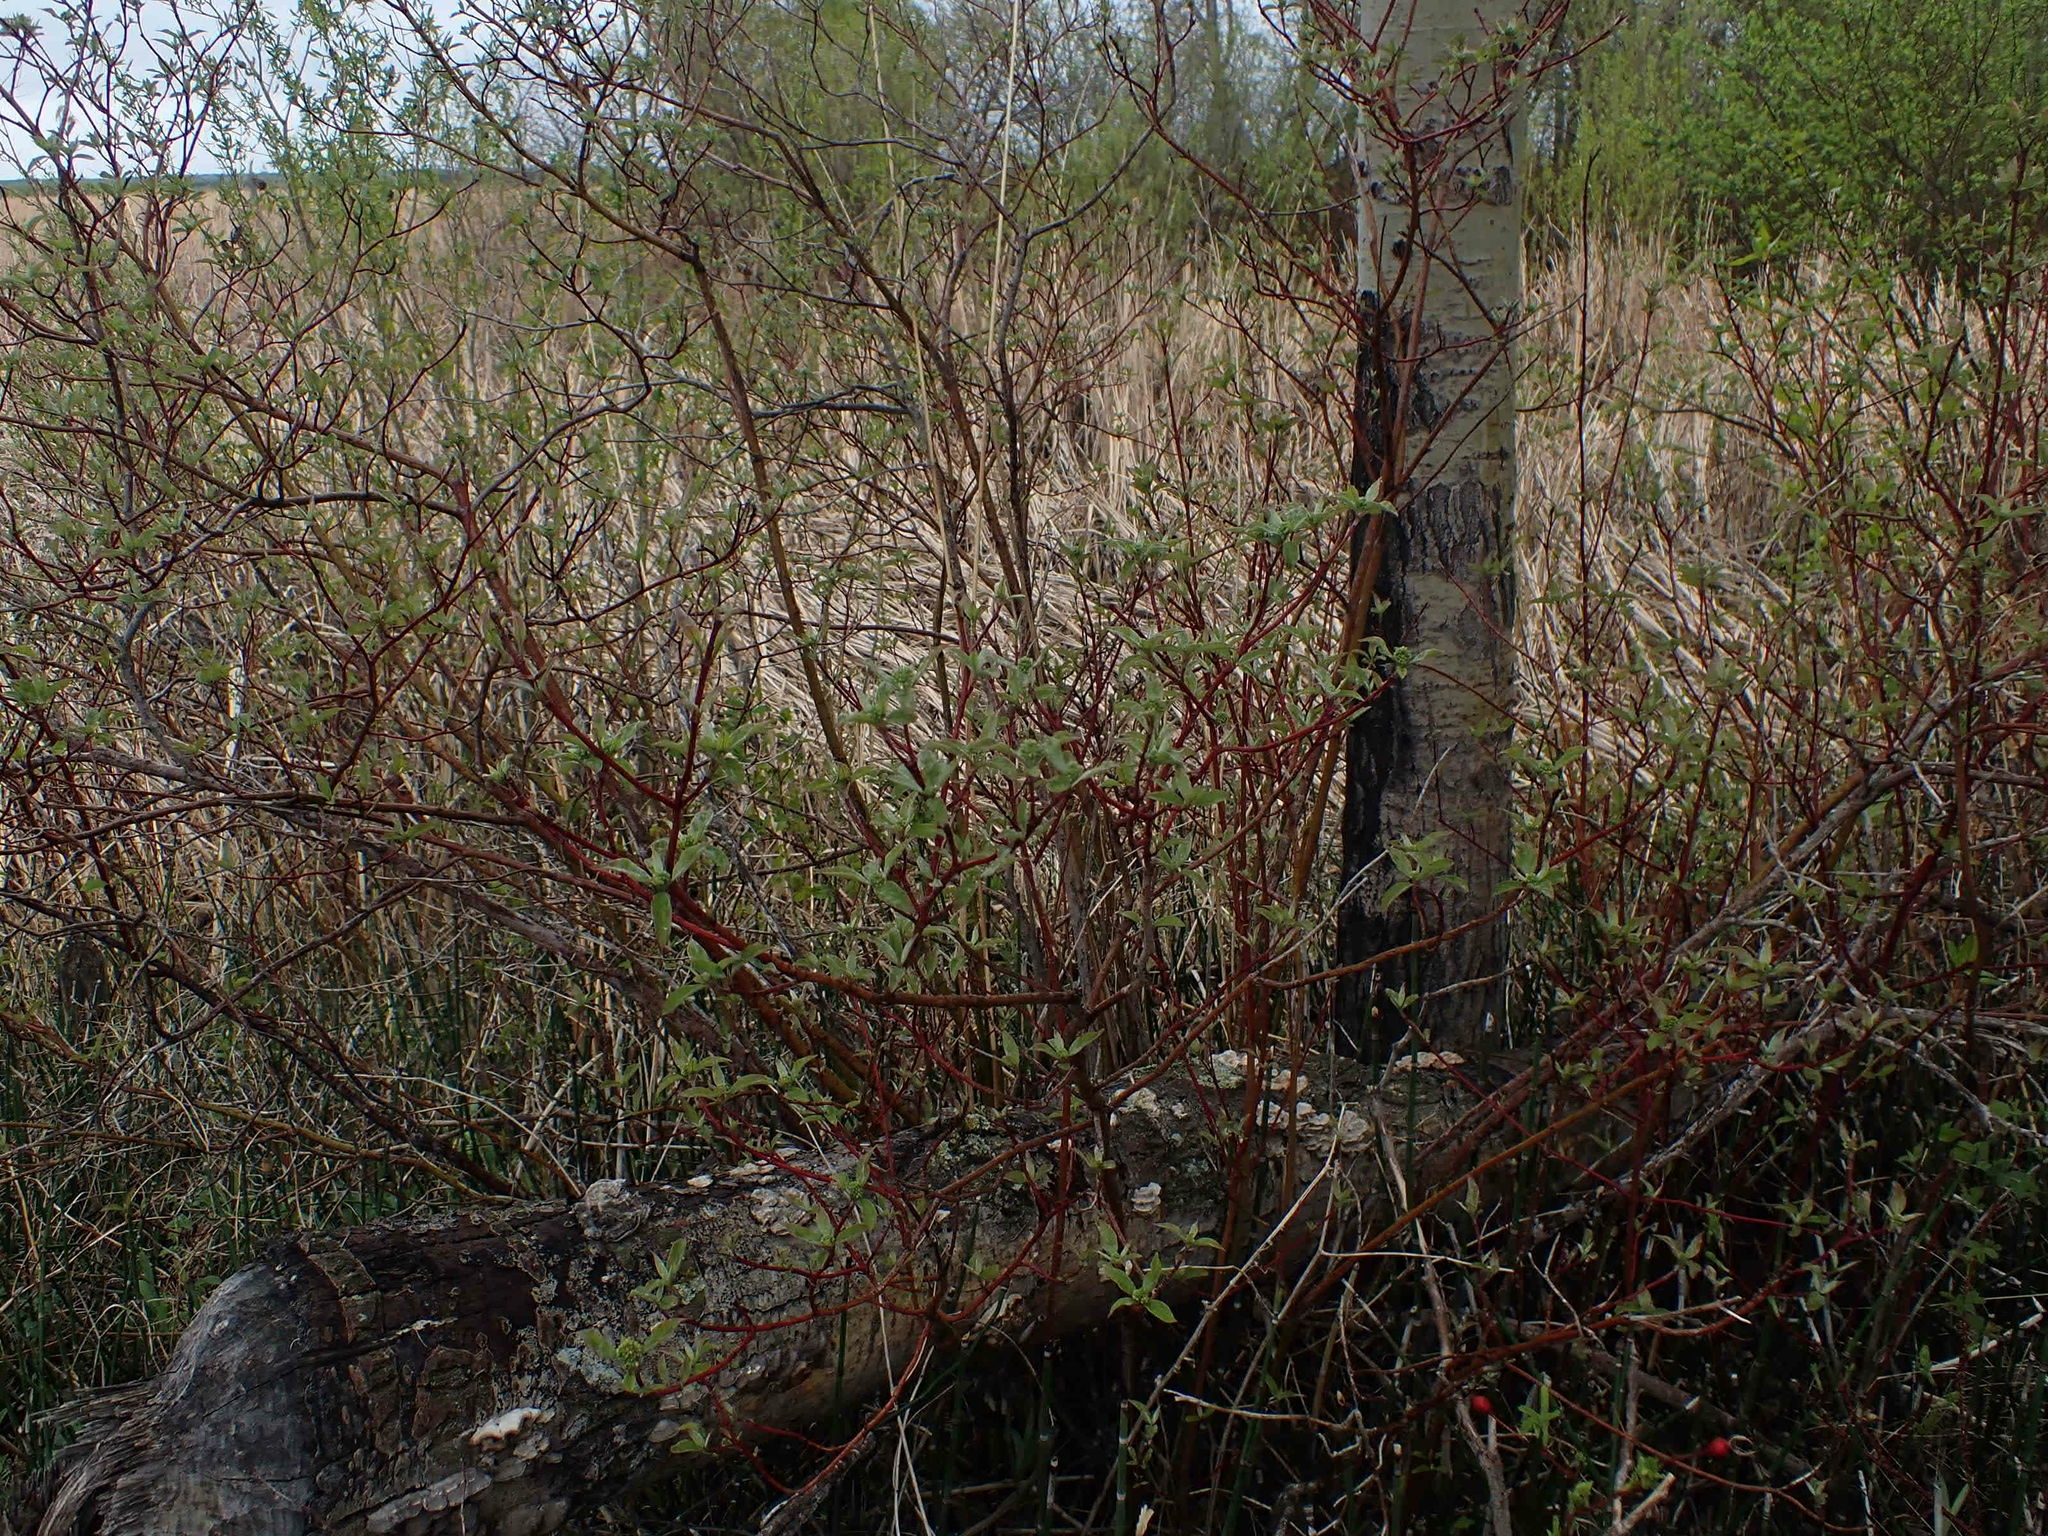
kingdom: Plantae
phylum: Tracheophyta
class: Magnoliopsida
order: Cornales
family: Cornaceae
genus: Cornus
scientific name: Cornus sericea
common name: Red-osier dogwood
